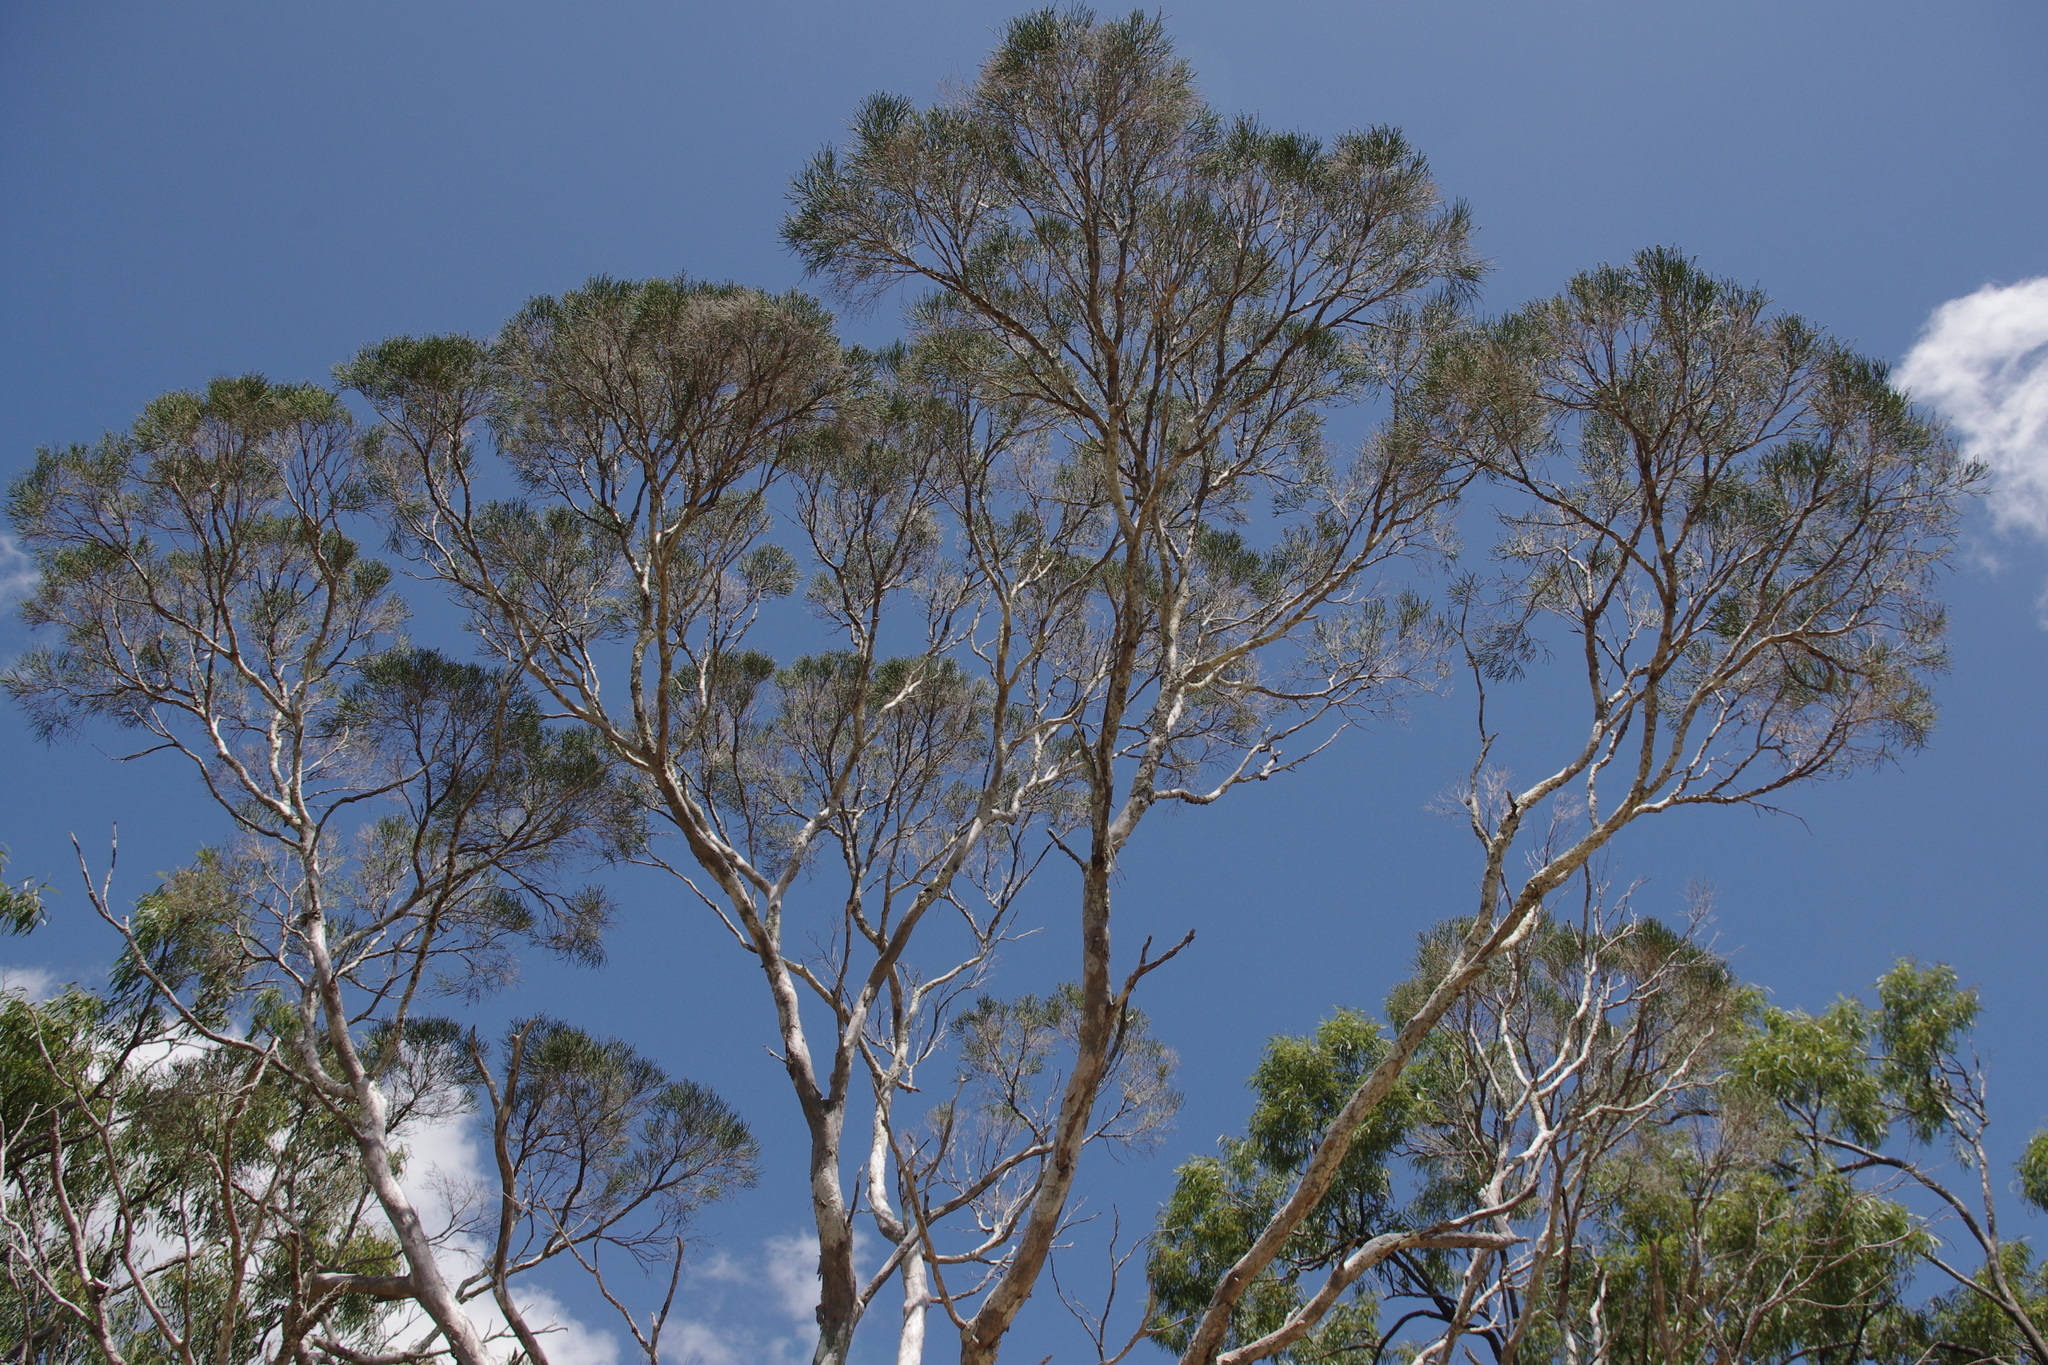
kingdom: Plantae
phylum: Tracheophyta
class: Magnoliopsida
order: Myrtales
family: Myrtaceae
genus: Melaleuca
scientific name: Melaleuca foliolosa
